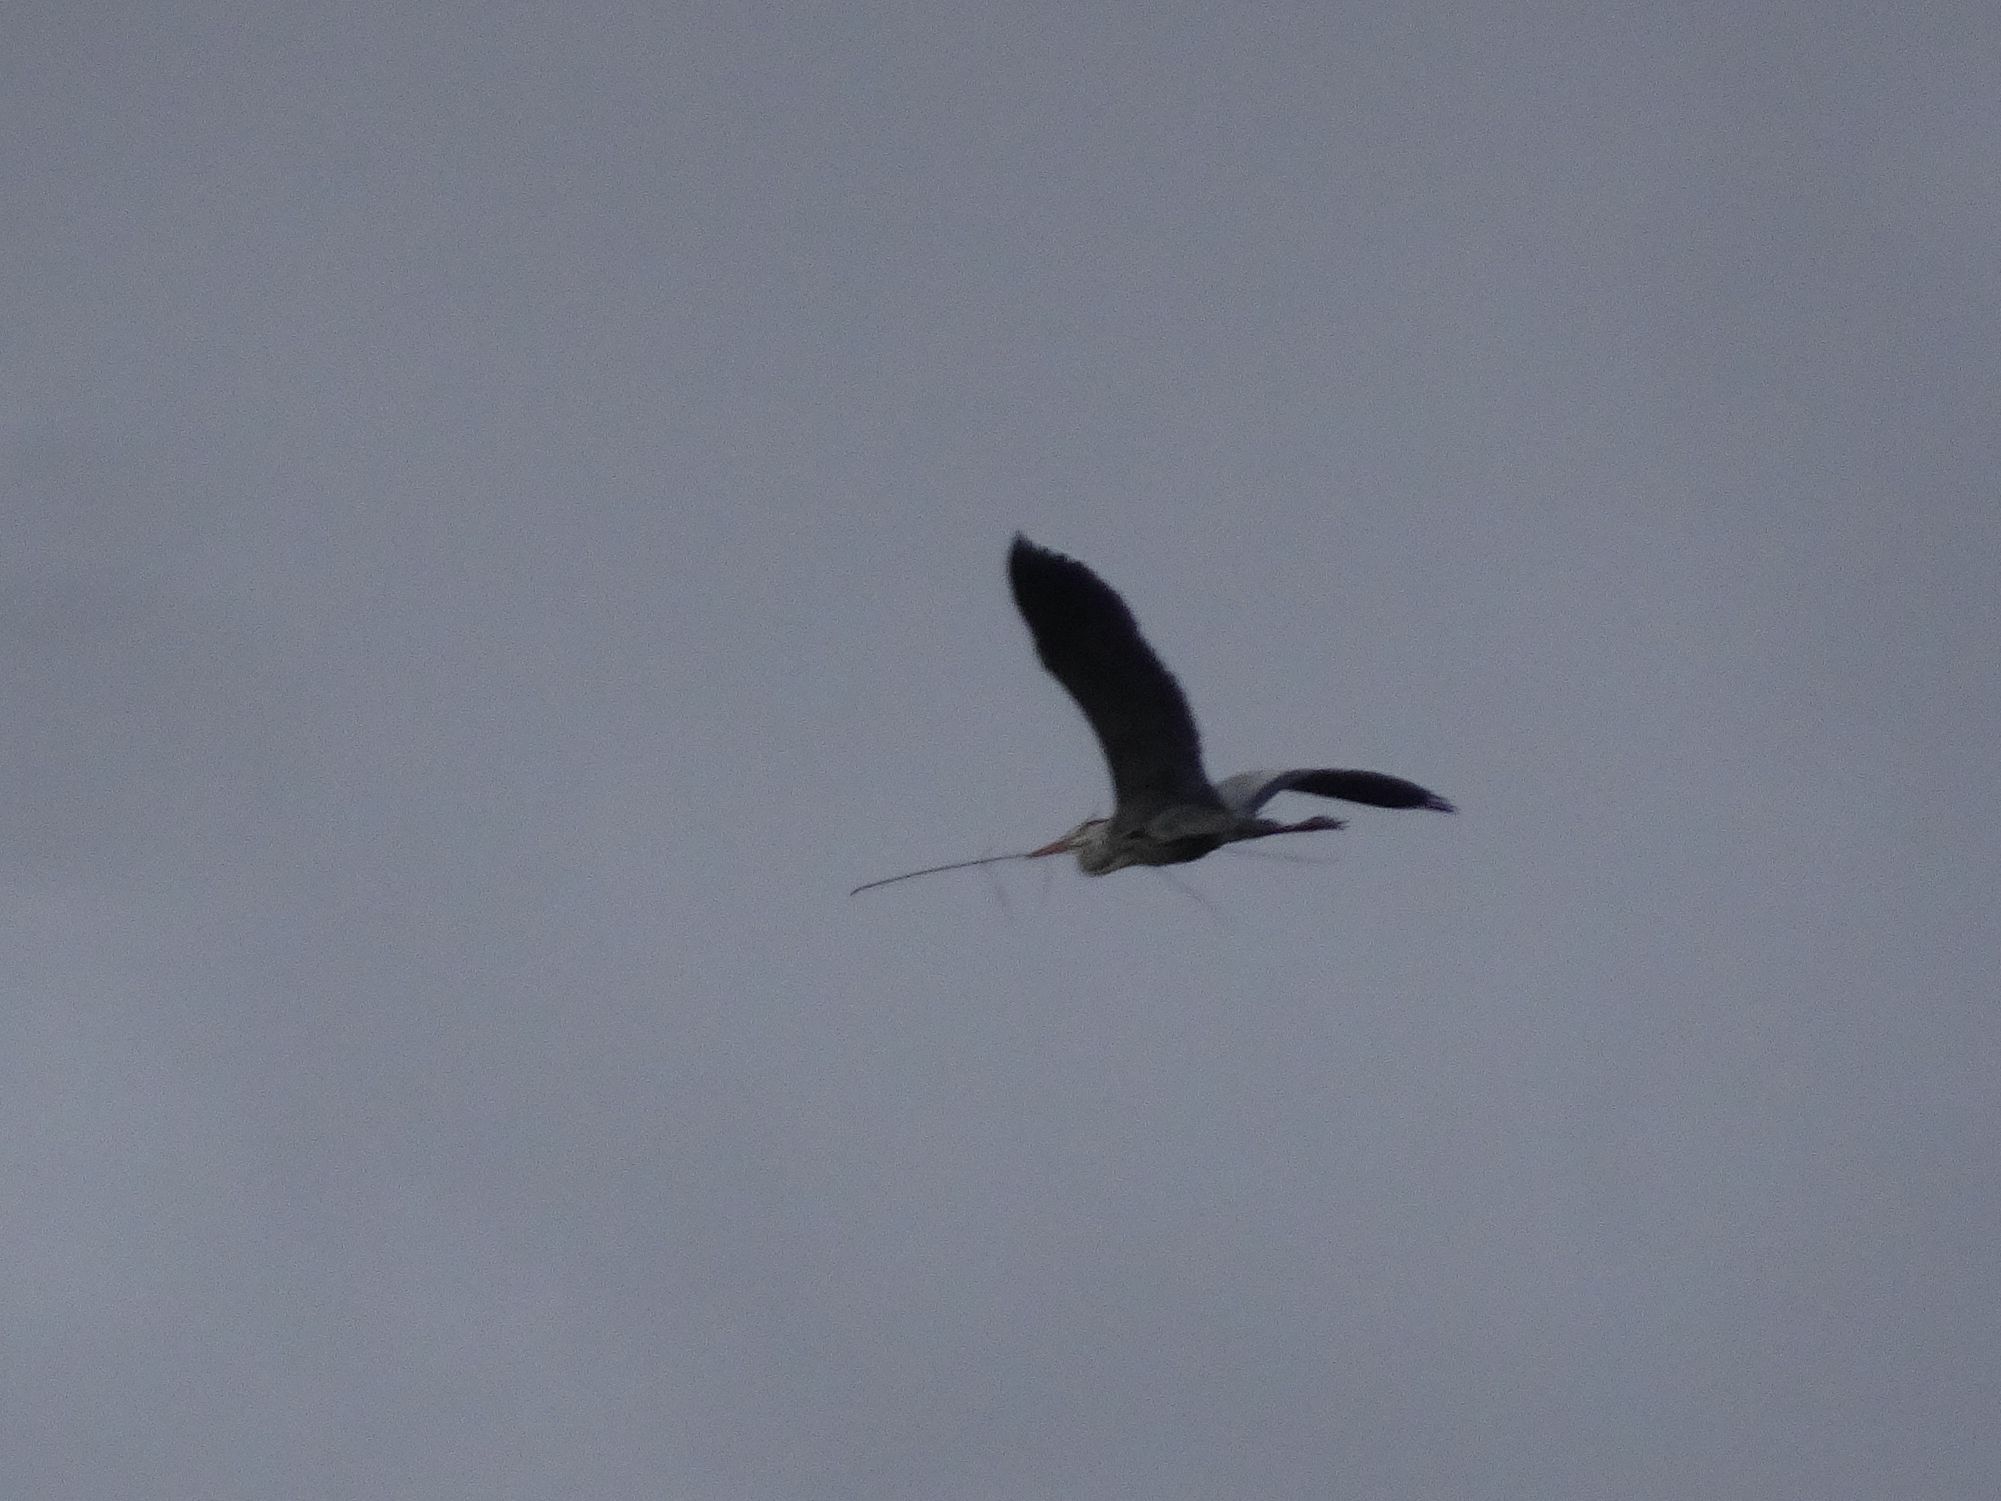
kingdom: Animalia
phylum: Chordata
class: Aves
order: Pelecaniformes
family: Ardeidae
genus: Ardea
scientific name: Ardea cinerea
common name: Grey heron
